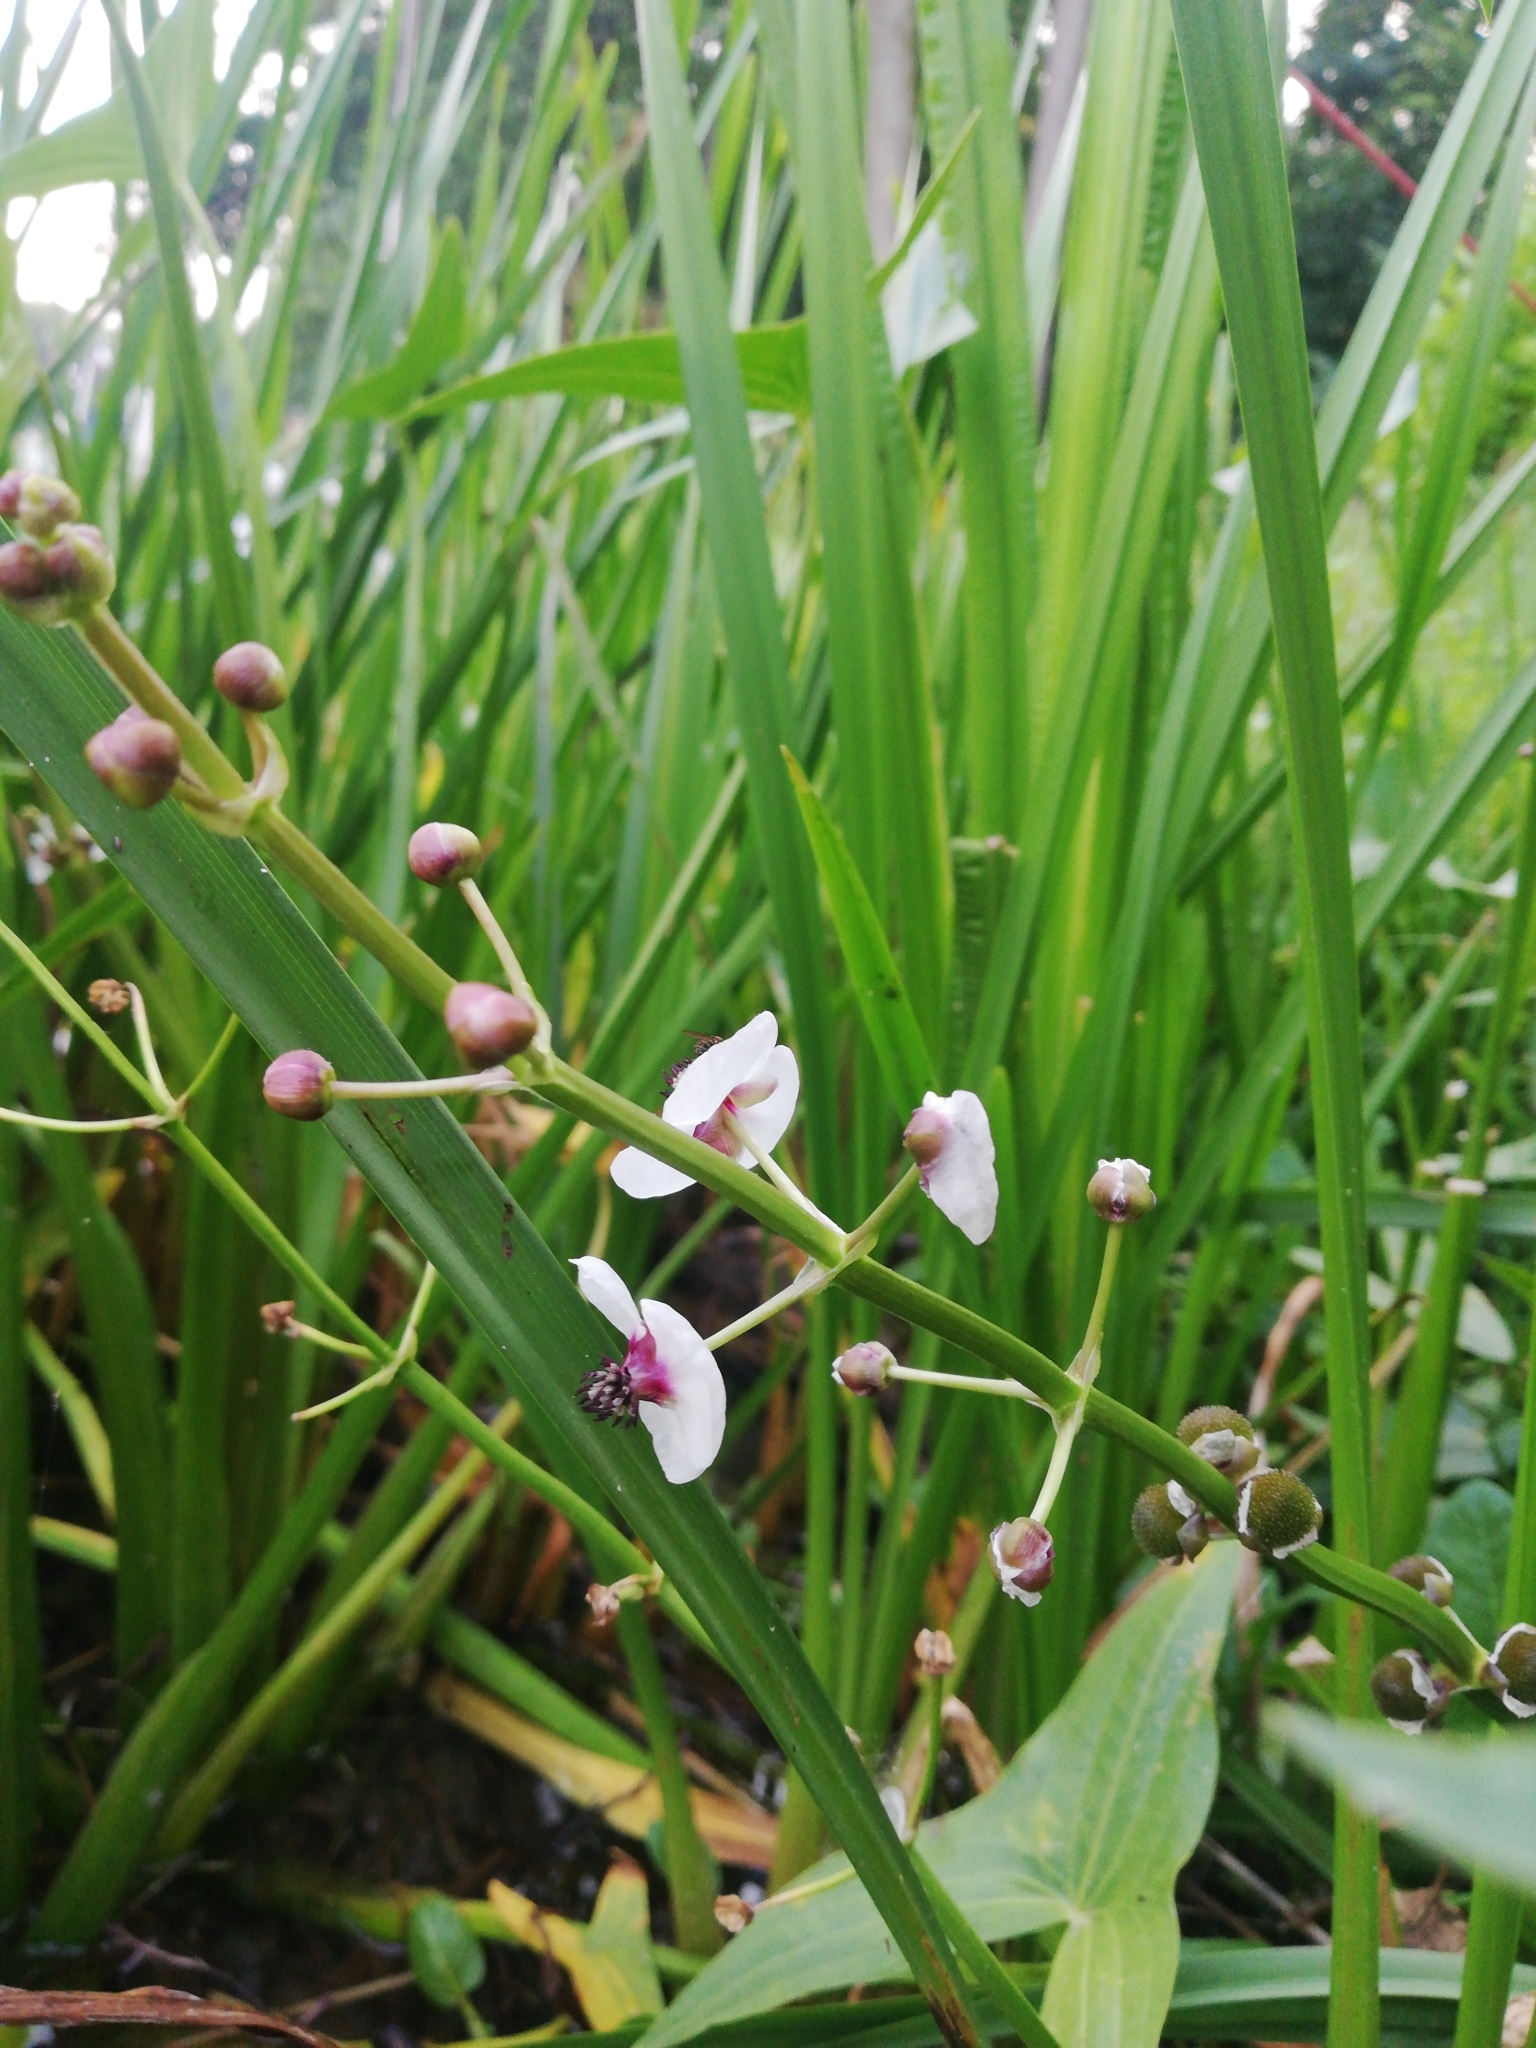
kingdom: Plantae
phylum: Tracheophyta
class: Liliopsida
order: Alismatales
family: Alismataceae
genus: Sagittaria
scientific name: Sagittaria sagittifolia
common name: Arrowhead
